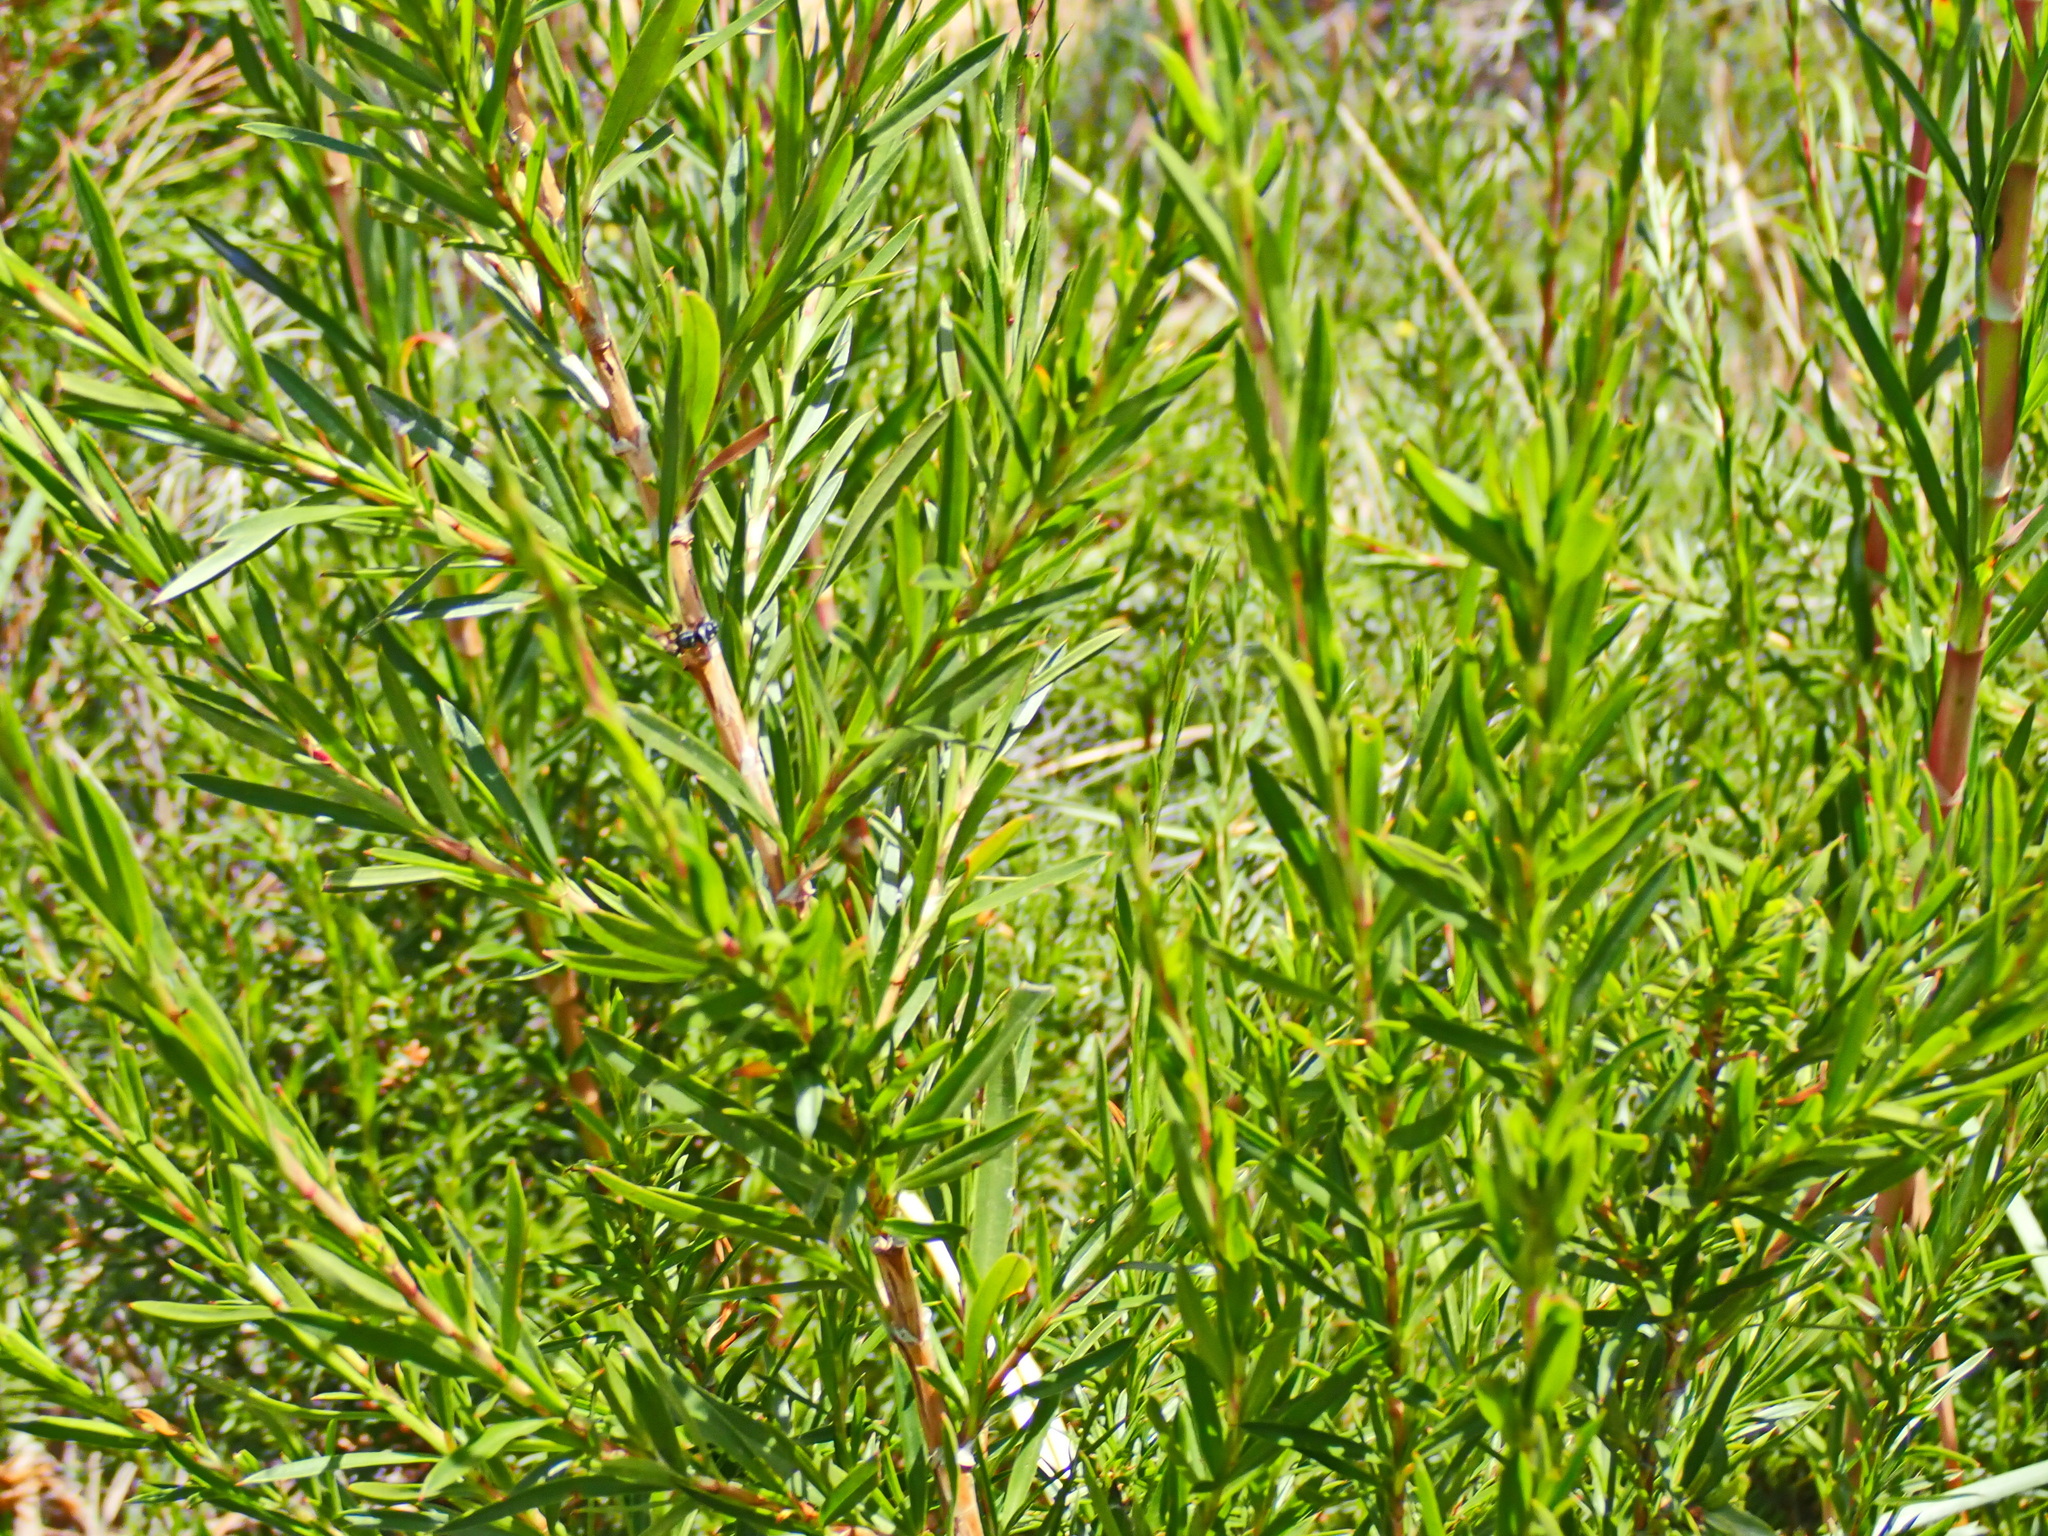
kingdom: Plantae
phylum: Tracheophyta
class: Magnoliopsida
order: Rosales
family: Rosaceae
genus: Cliffortia
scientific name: Cliffortia strobilifera
